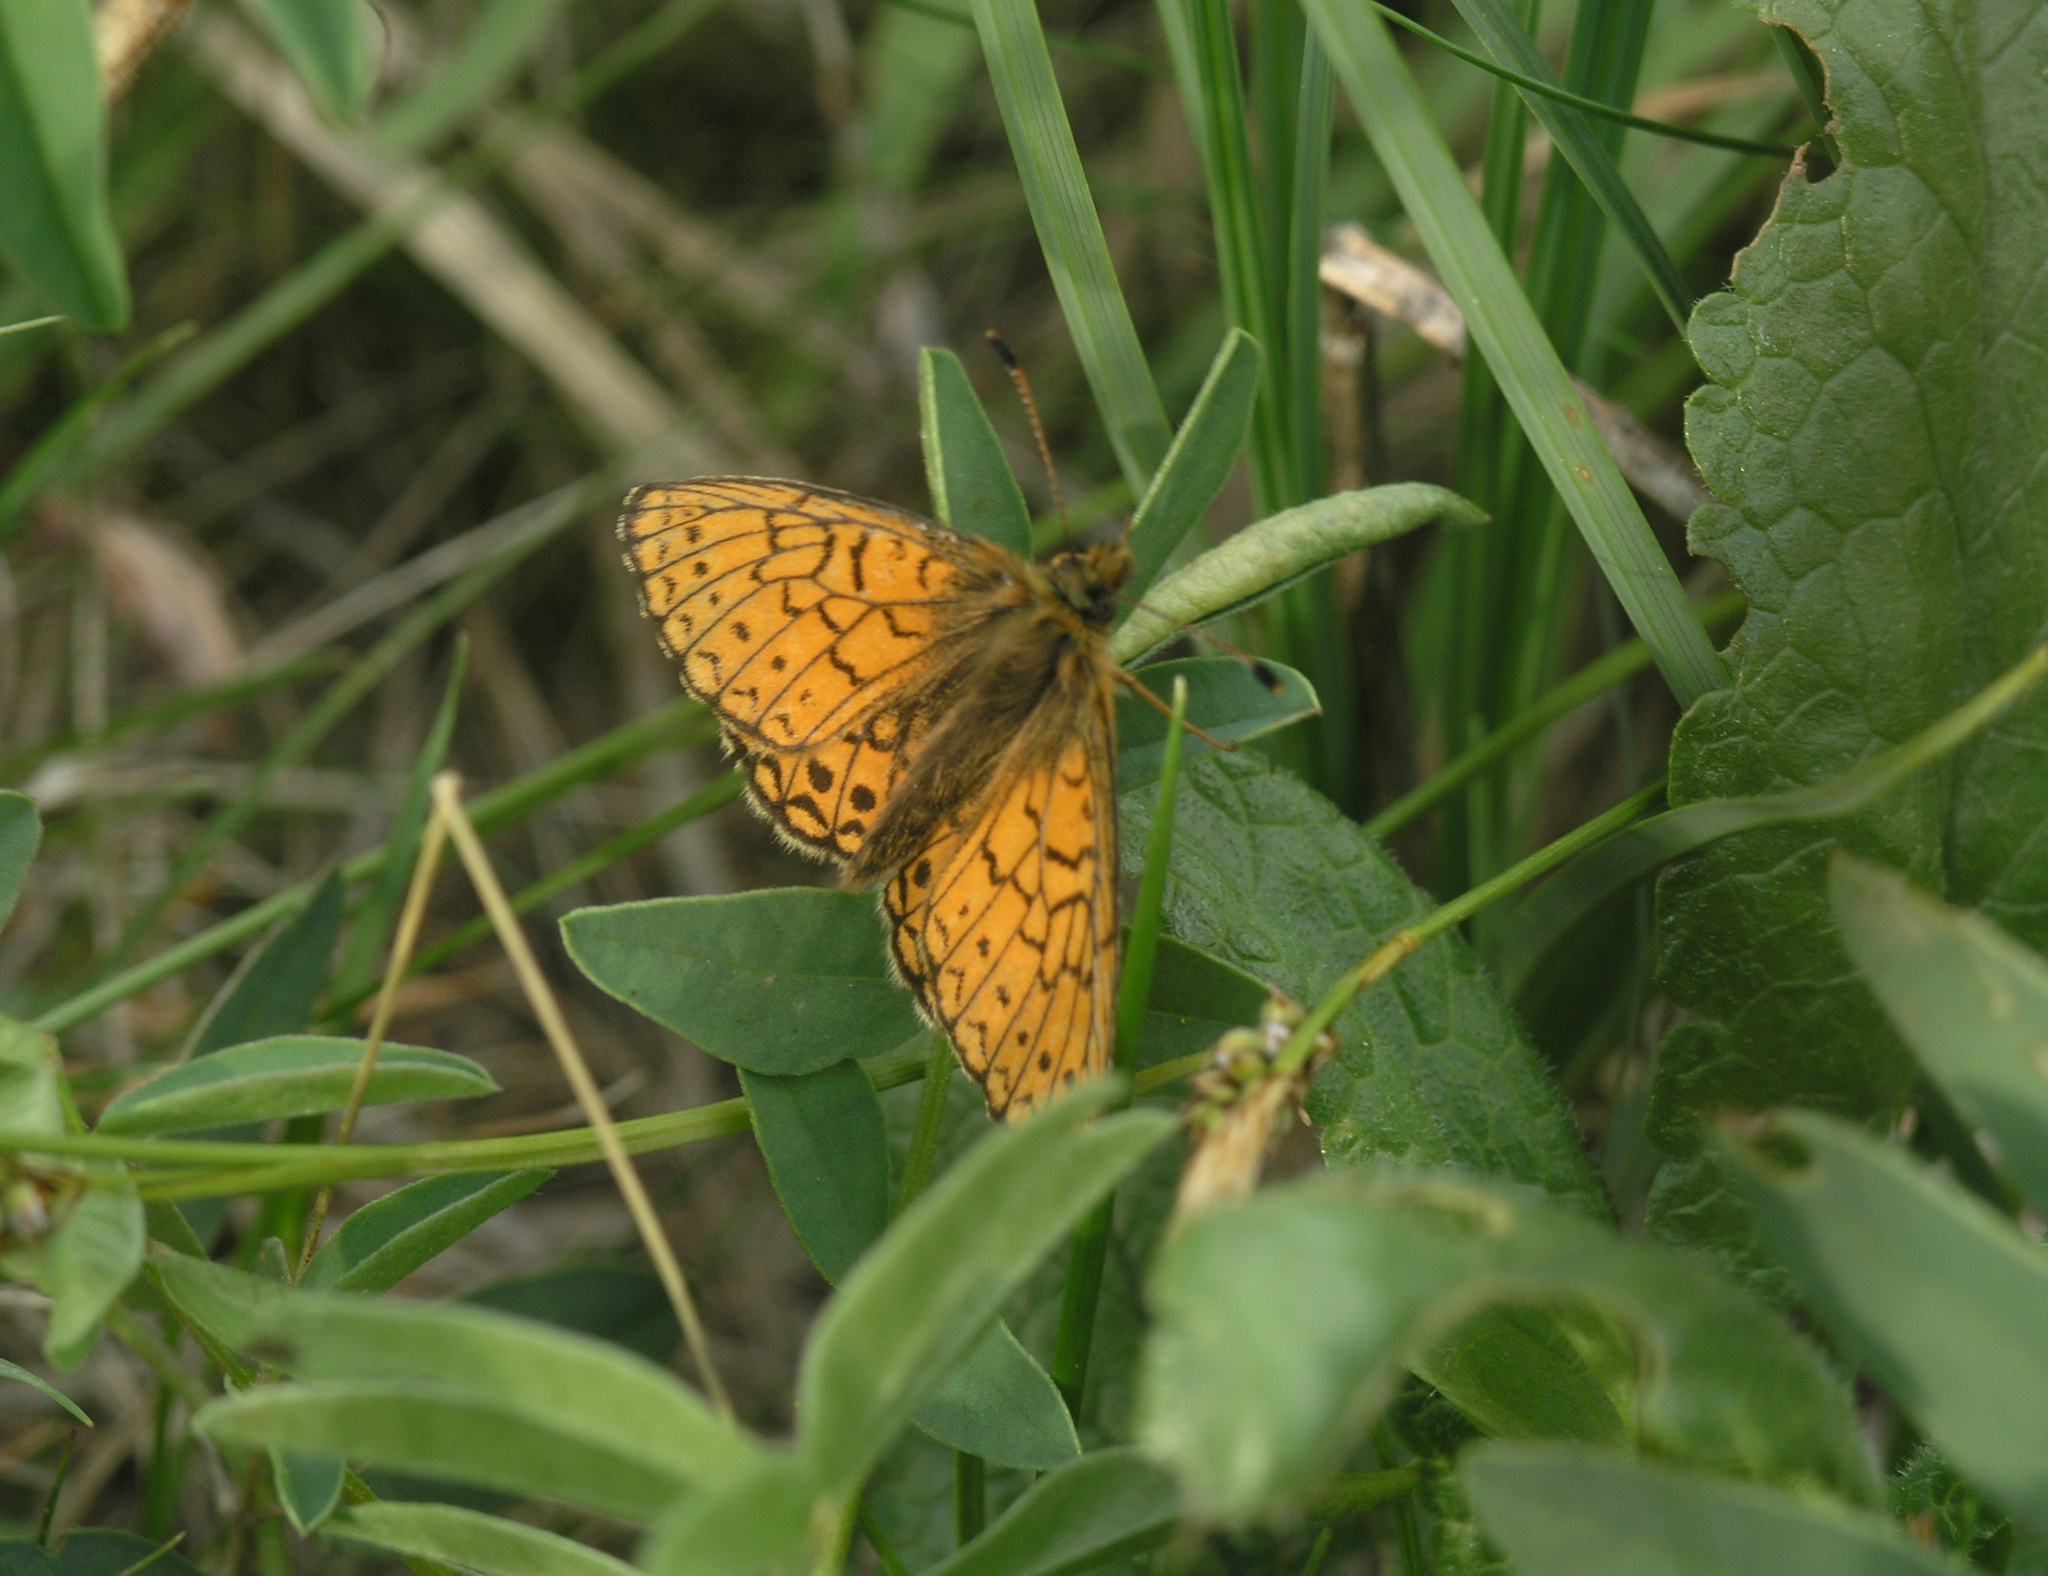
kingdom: Animalia
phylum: Arthropoda
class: Insecta
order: Lepidoptera
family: Nymphalidae
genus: Boloria
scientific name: Boloria eunomia
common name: Bog fritillary
